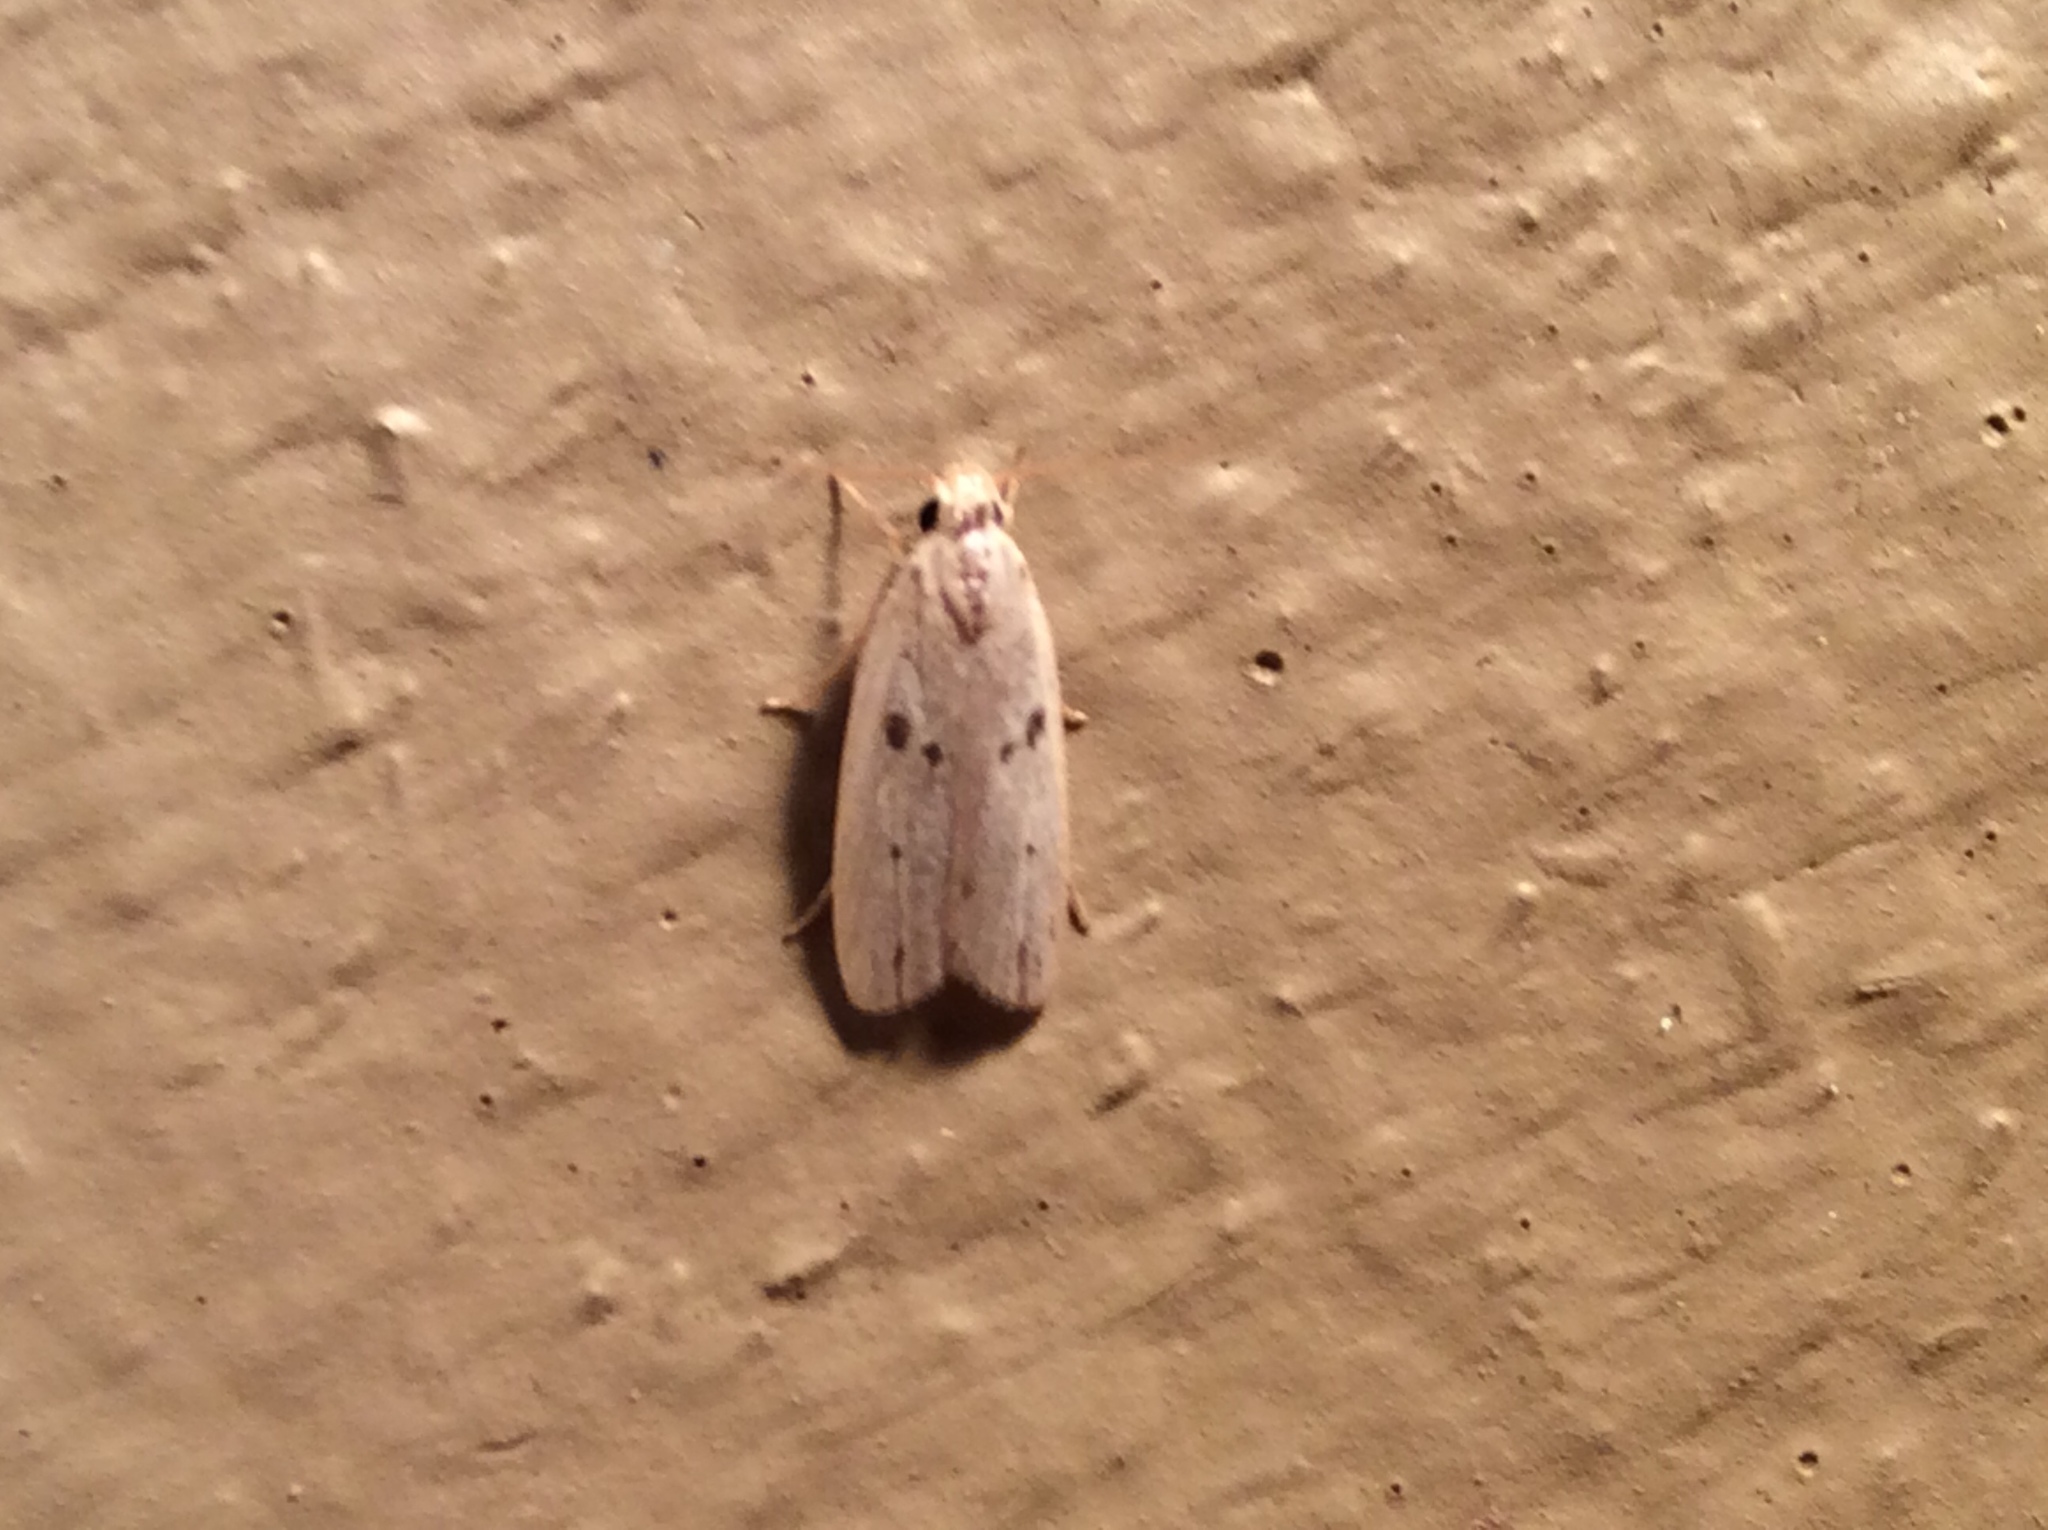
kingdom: Animalia
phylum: Arthropoda
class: Insecta
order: Lepidoptera
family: Peleopodidae
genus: Scythropiodes
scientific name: Scythropiodes issikii
